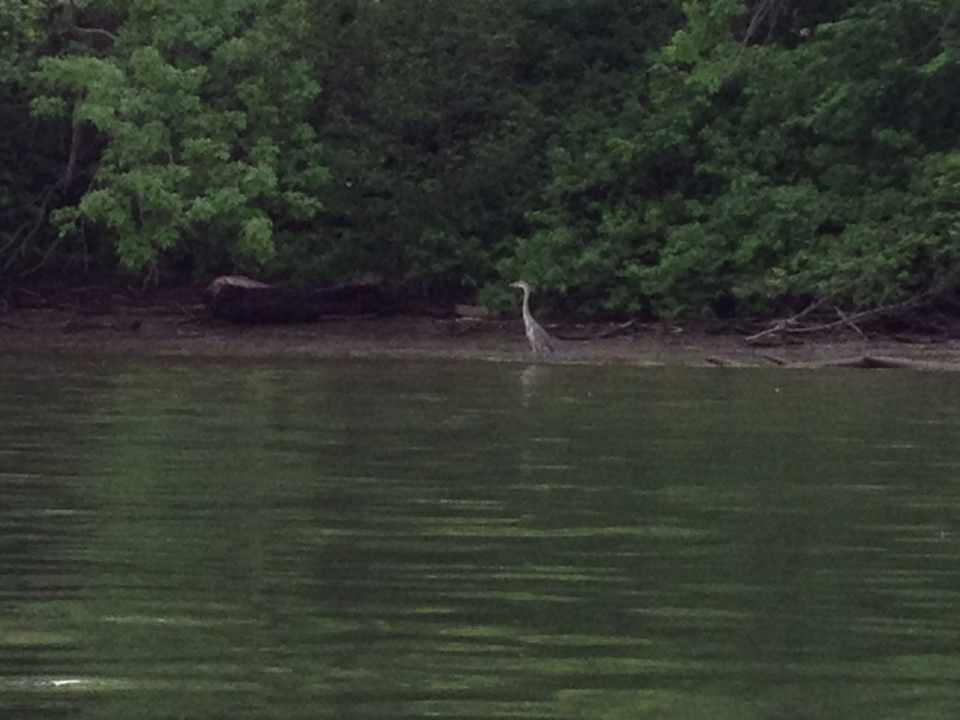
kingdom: Animalia
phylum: Chordata
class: Aves
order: Pelecaniformes
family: Ardeidae
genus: Ardea
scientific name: Ardea herodias
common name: Great blue heron
